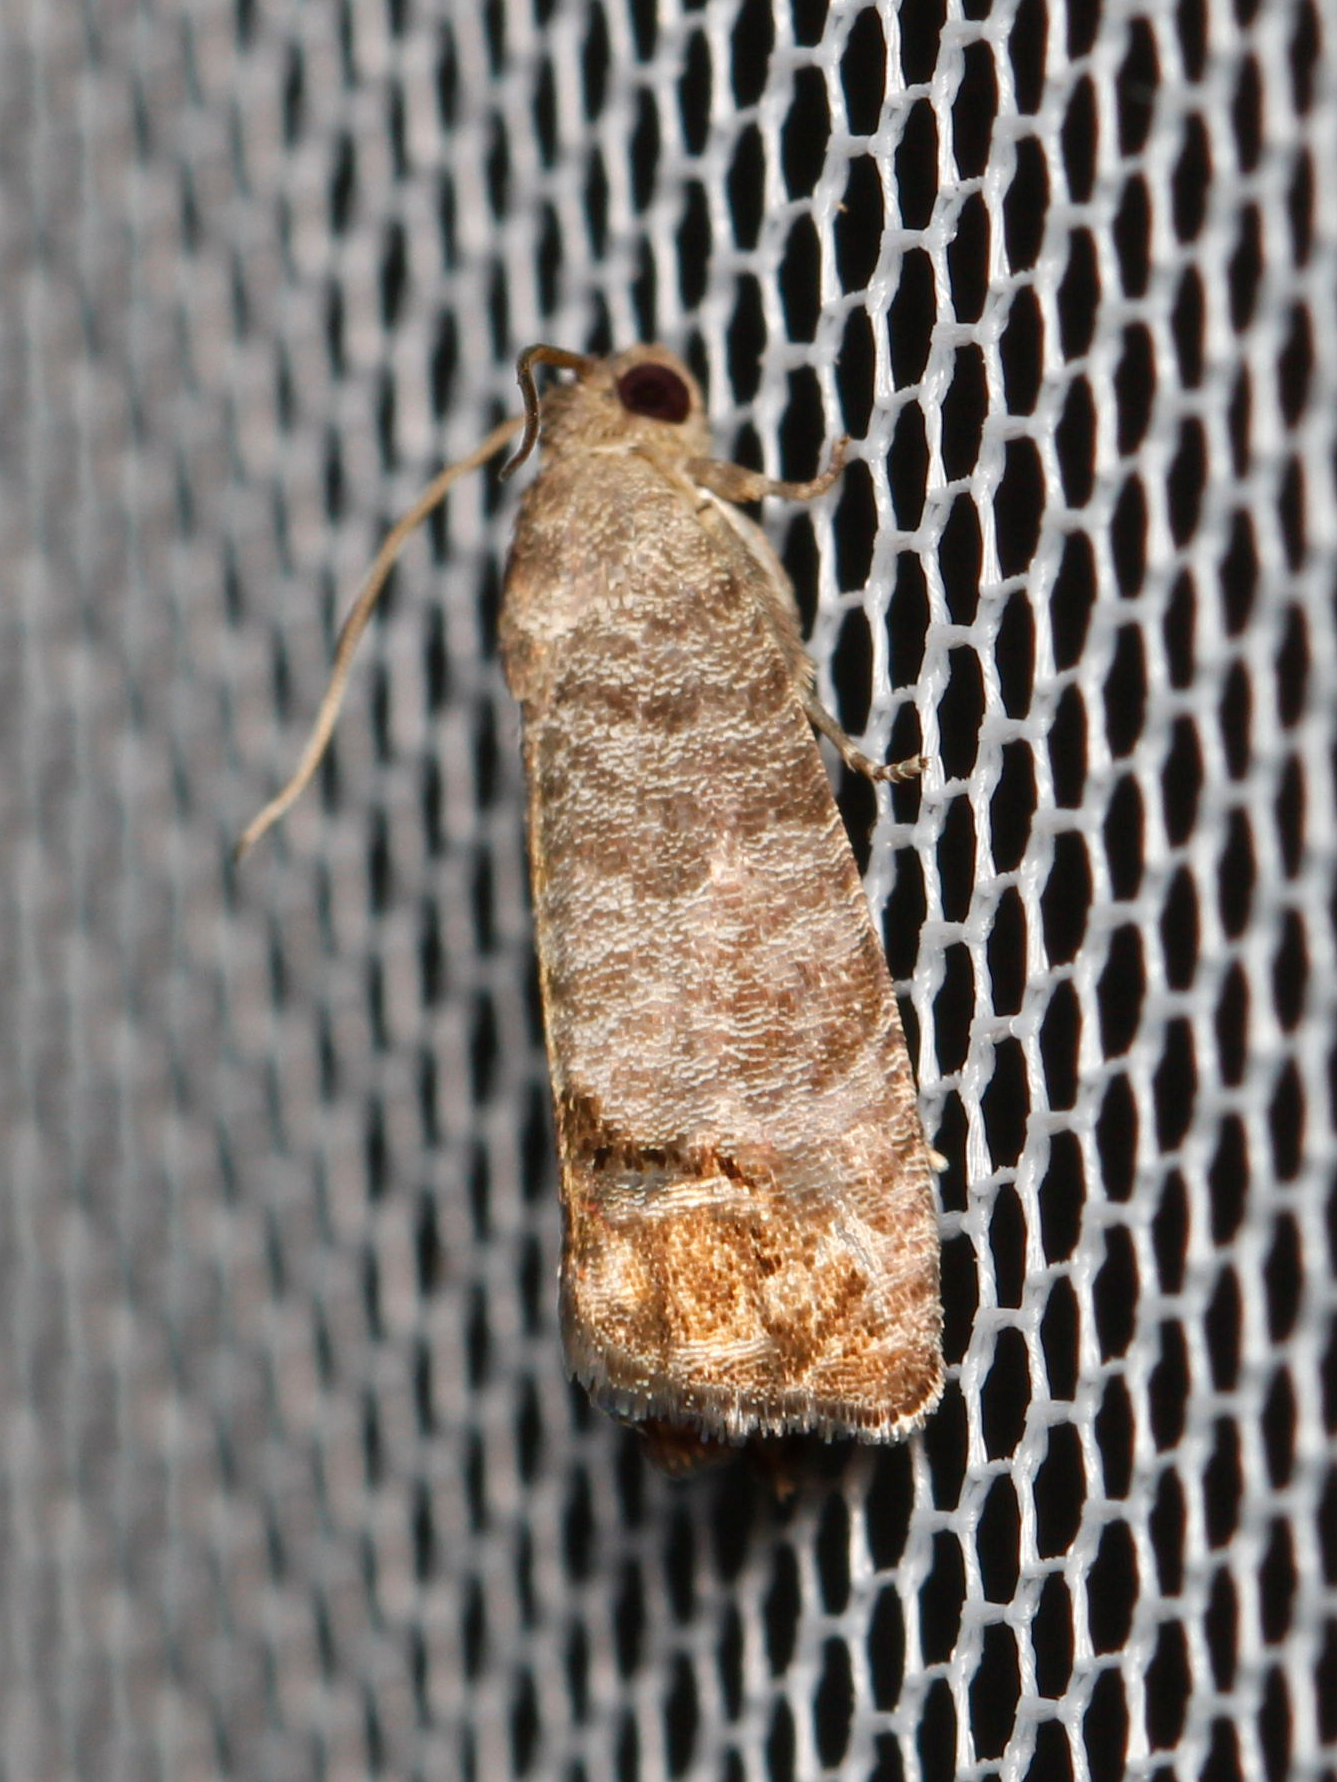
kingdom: Animalia
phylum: Arthropoda
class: Insecta
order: Lepidoptera
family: Tortricidae
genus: Cydia
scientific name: Cydia pomonella
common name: Codling moth
